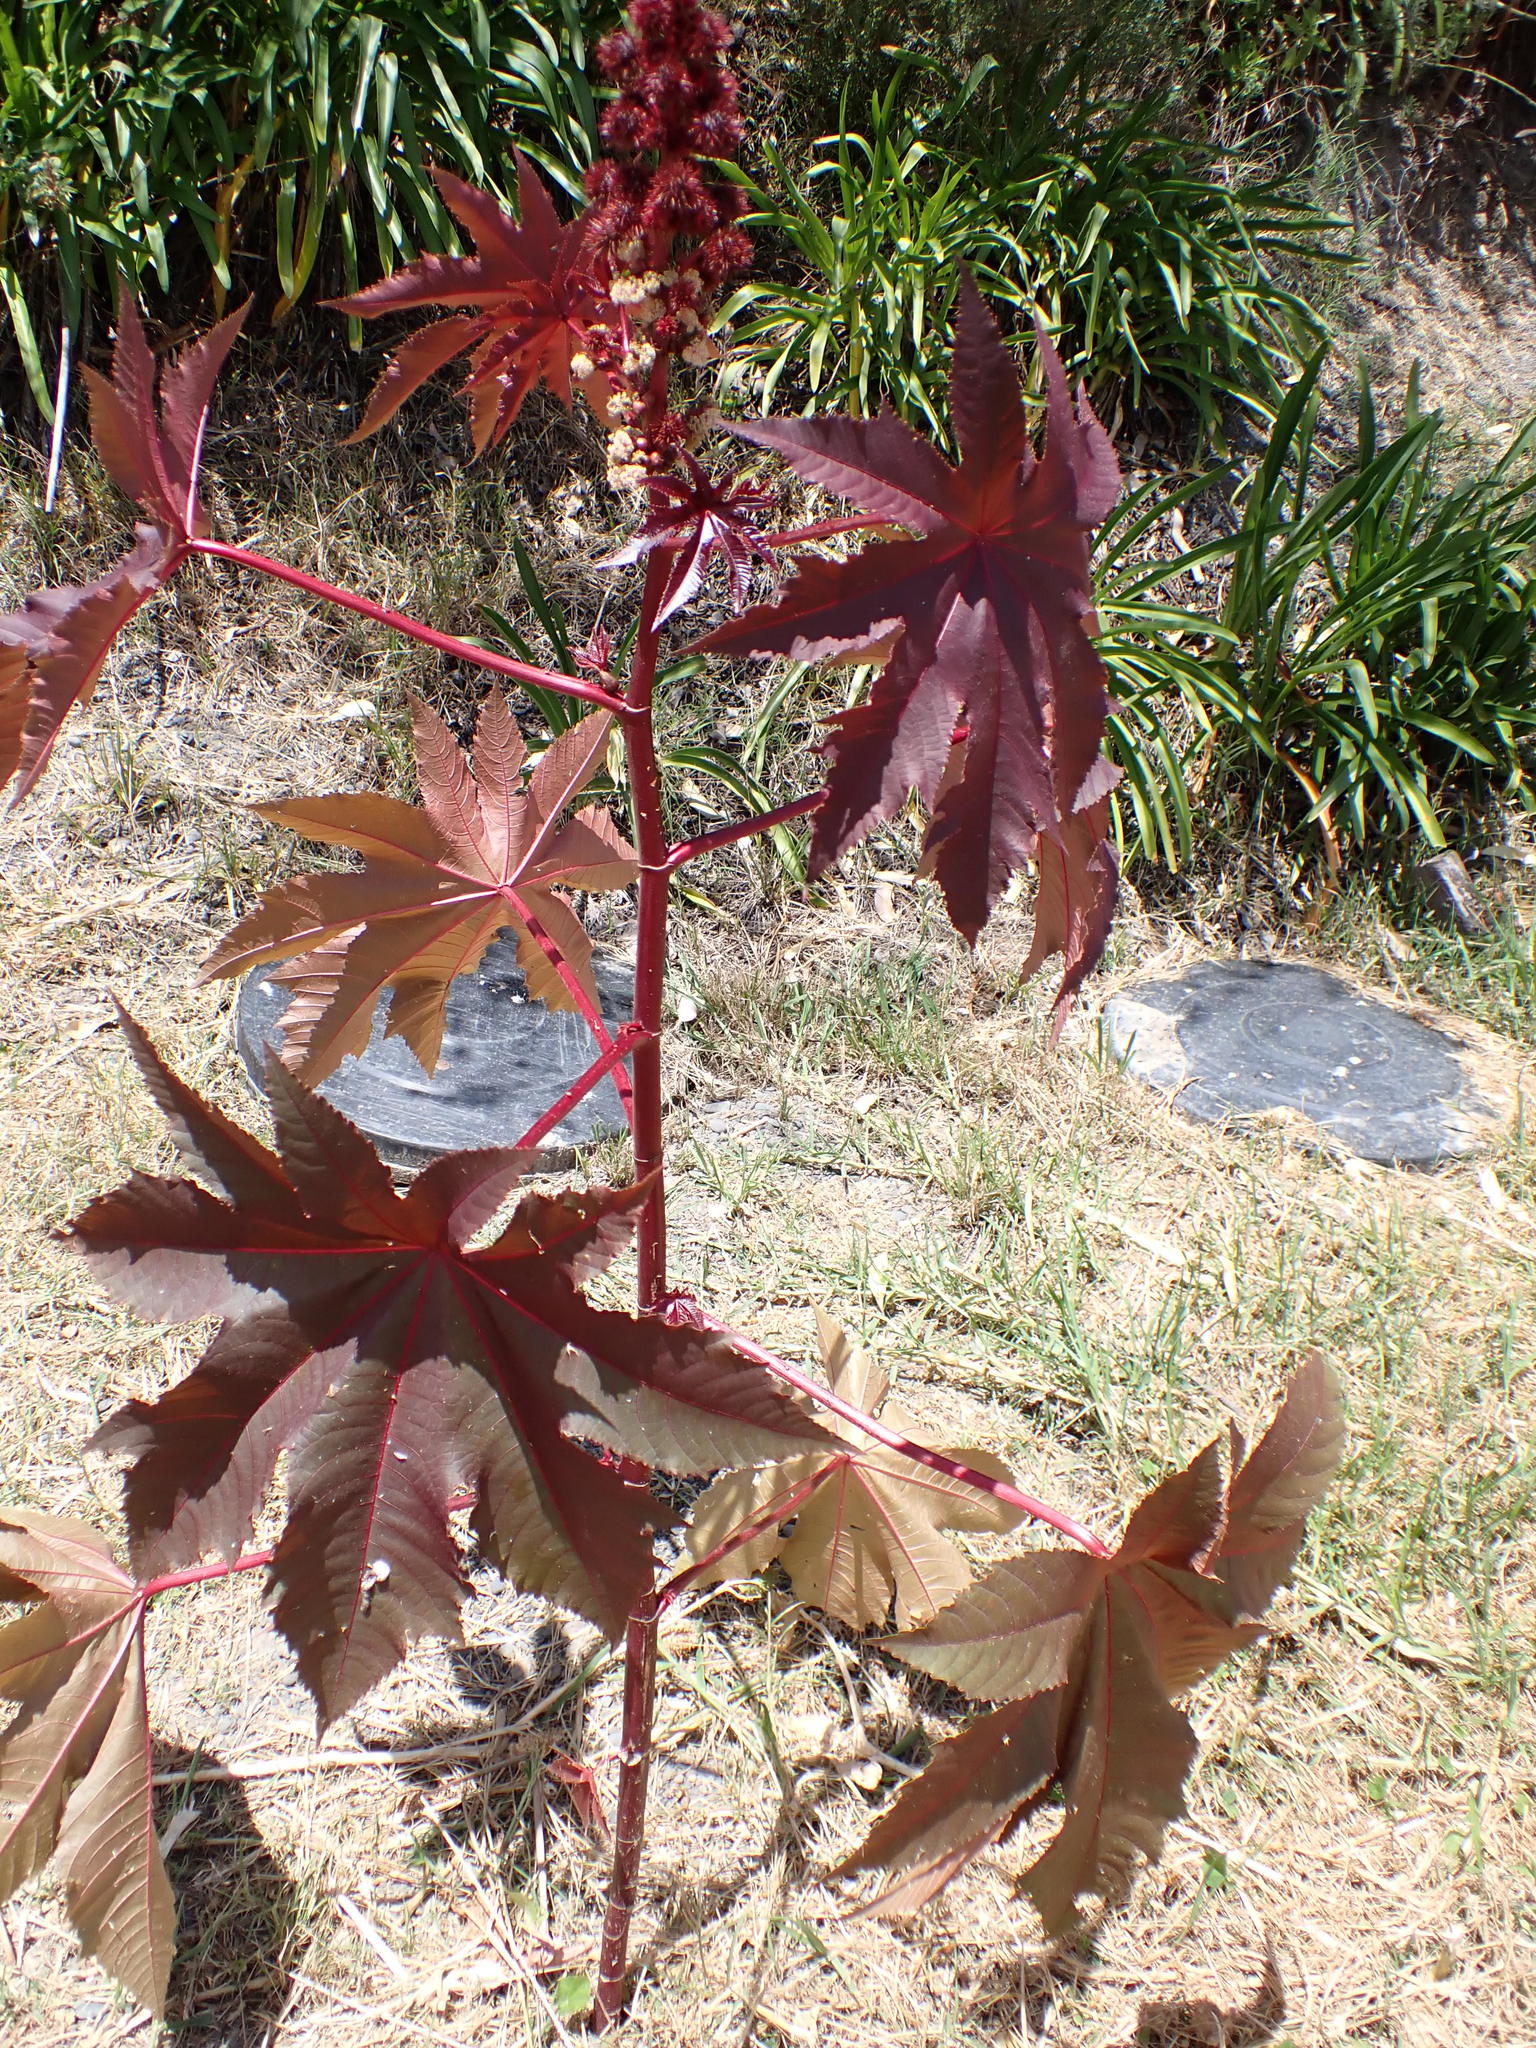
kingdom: Plantae
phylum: Tracheophyta
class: Magnoliopsida
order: Malpighiales
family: Euphorbiaceae
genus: Ricinus
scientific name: Ricinus communis
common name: Castor-oil-plant
